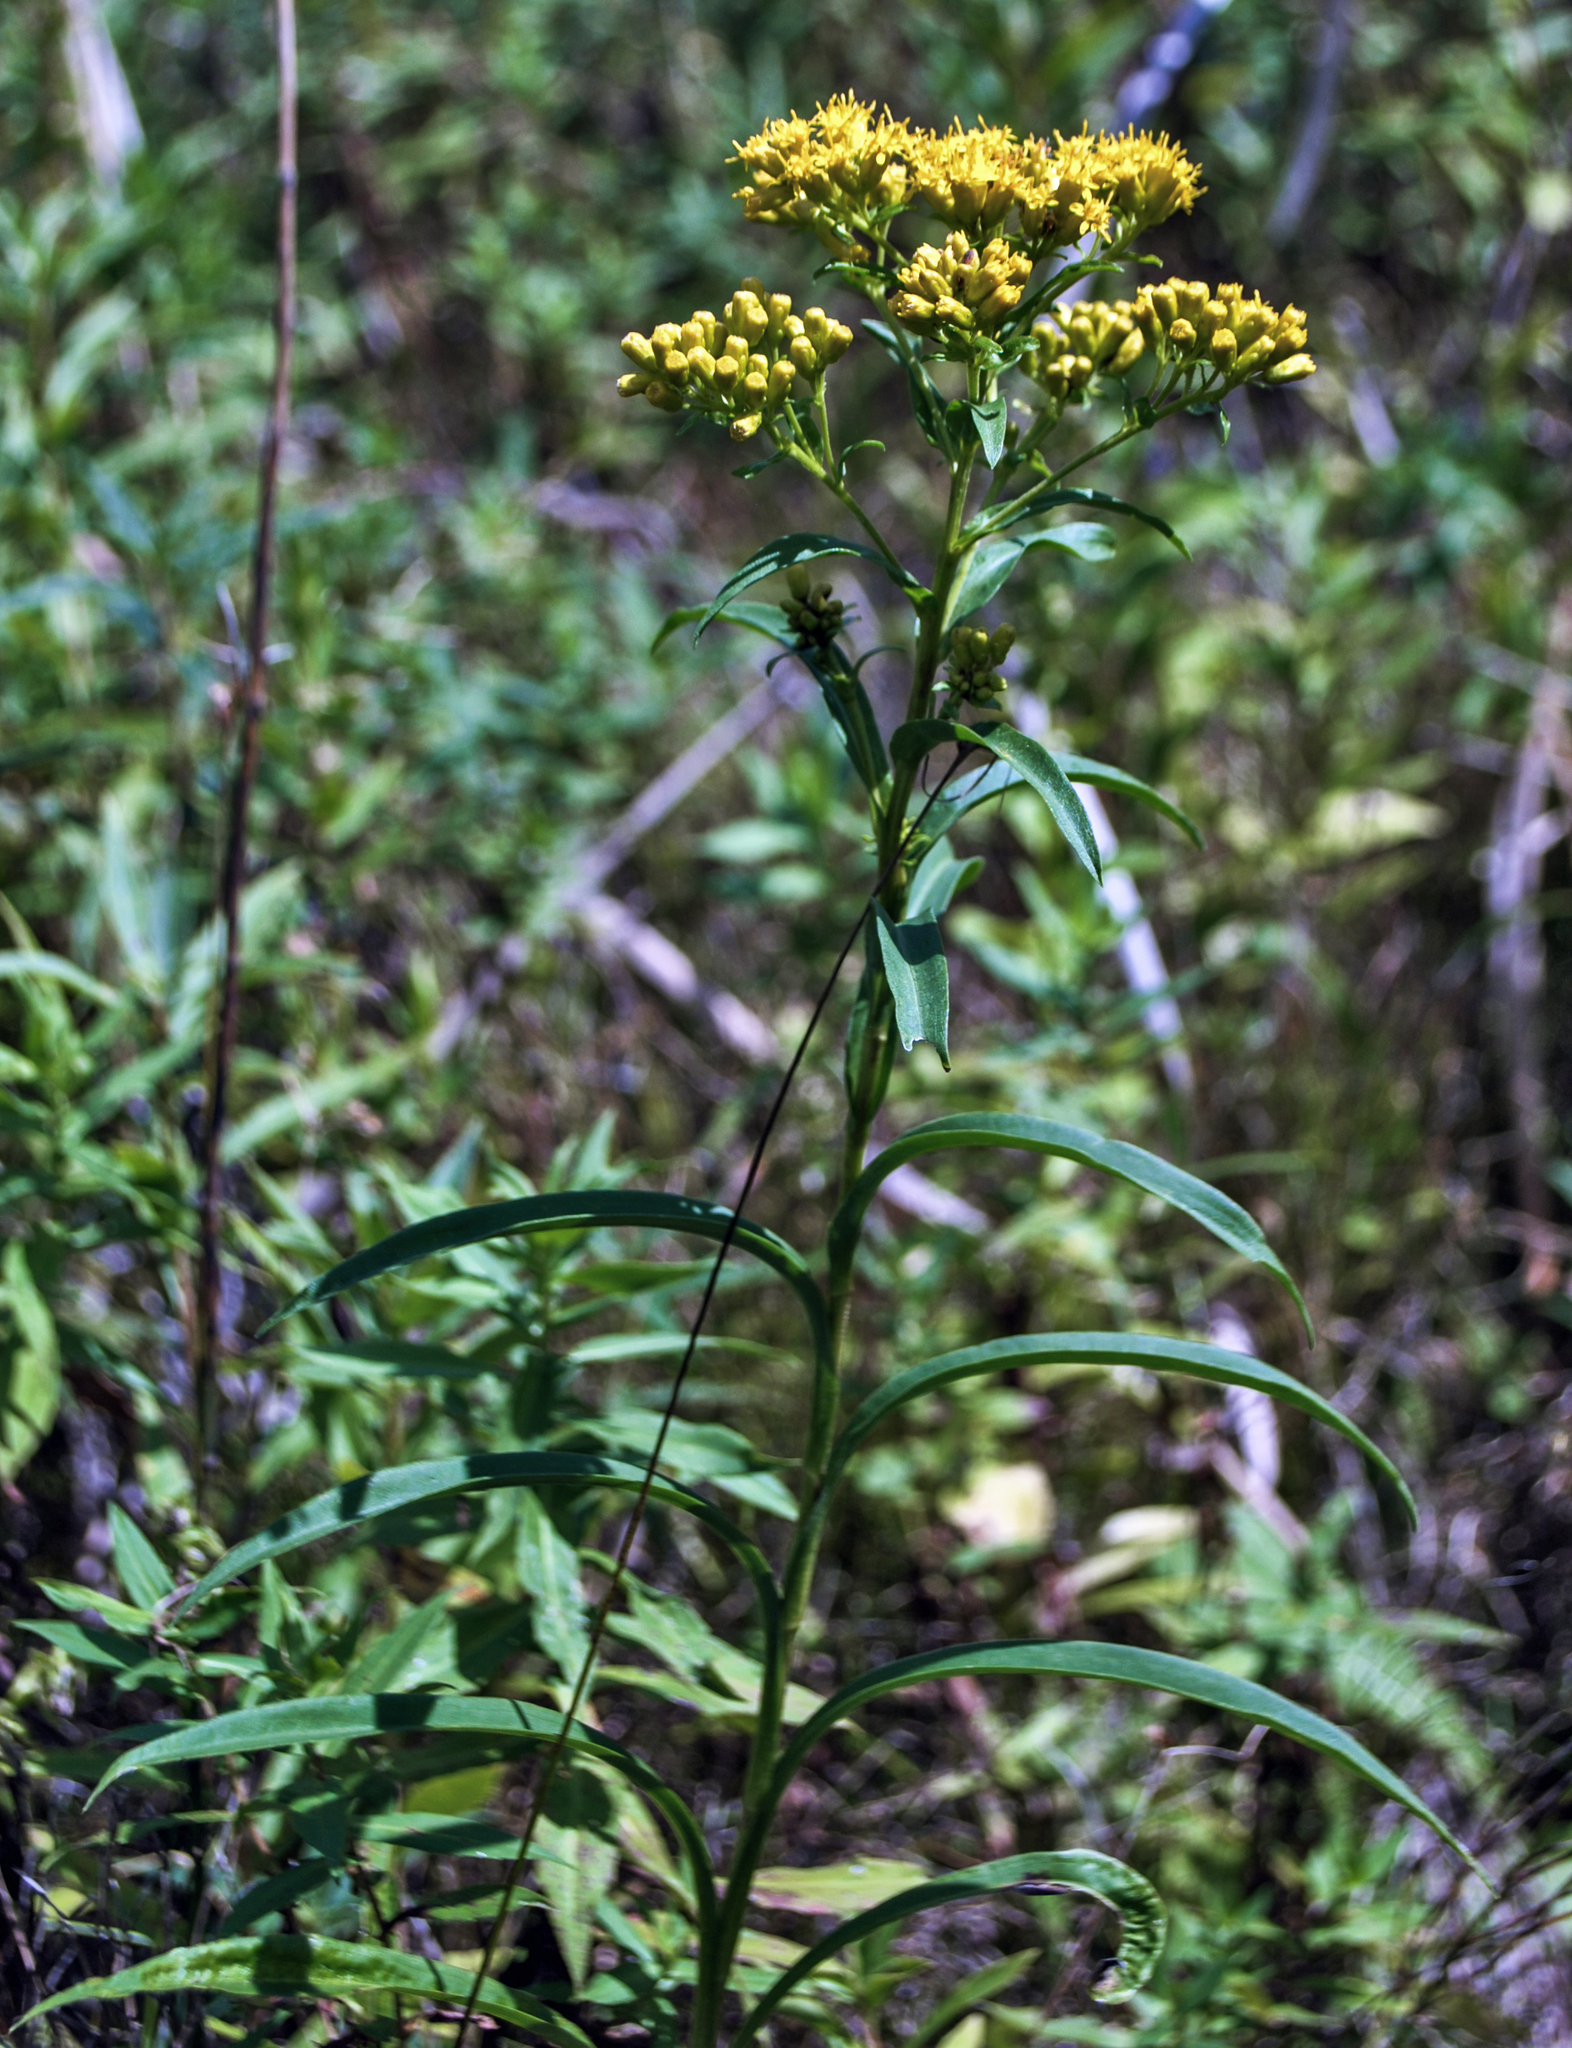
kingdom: Plantae
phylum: Tracheophyta
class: Magnoliopsida
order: Asterales
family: Asteraceae
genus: Solidago
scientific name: Solidago riddellii
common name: Riddell's goldenrod
